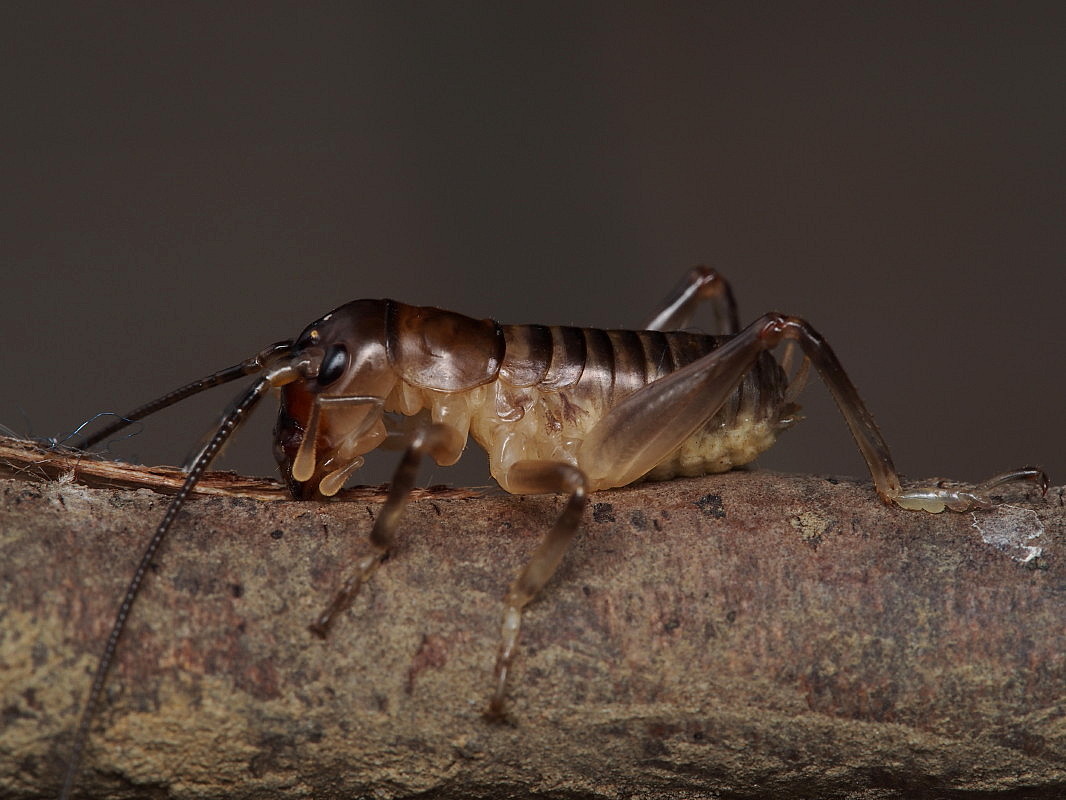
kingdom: Animalia
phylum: Arthropoda
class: Insecta
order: Orthoptera
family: Anostostomatidae
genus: Anisoura
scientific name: Anisoura nicobarica
